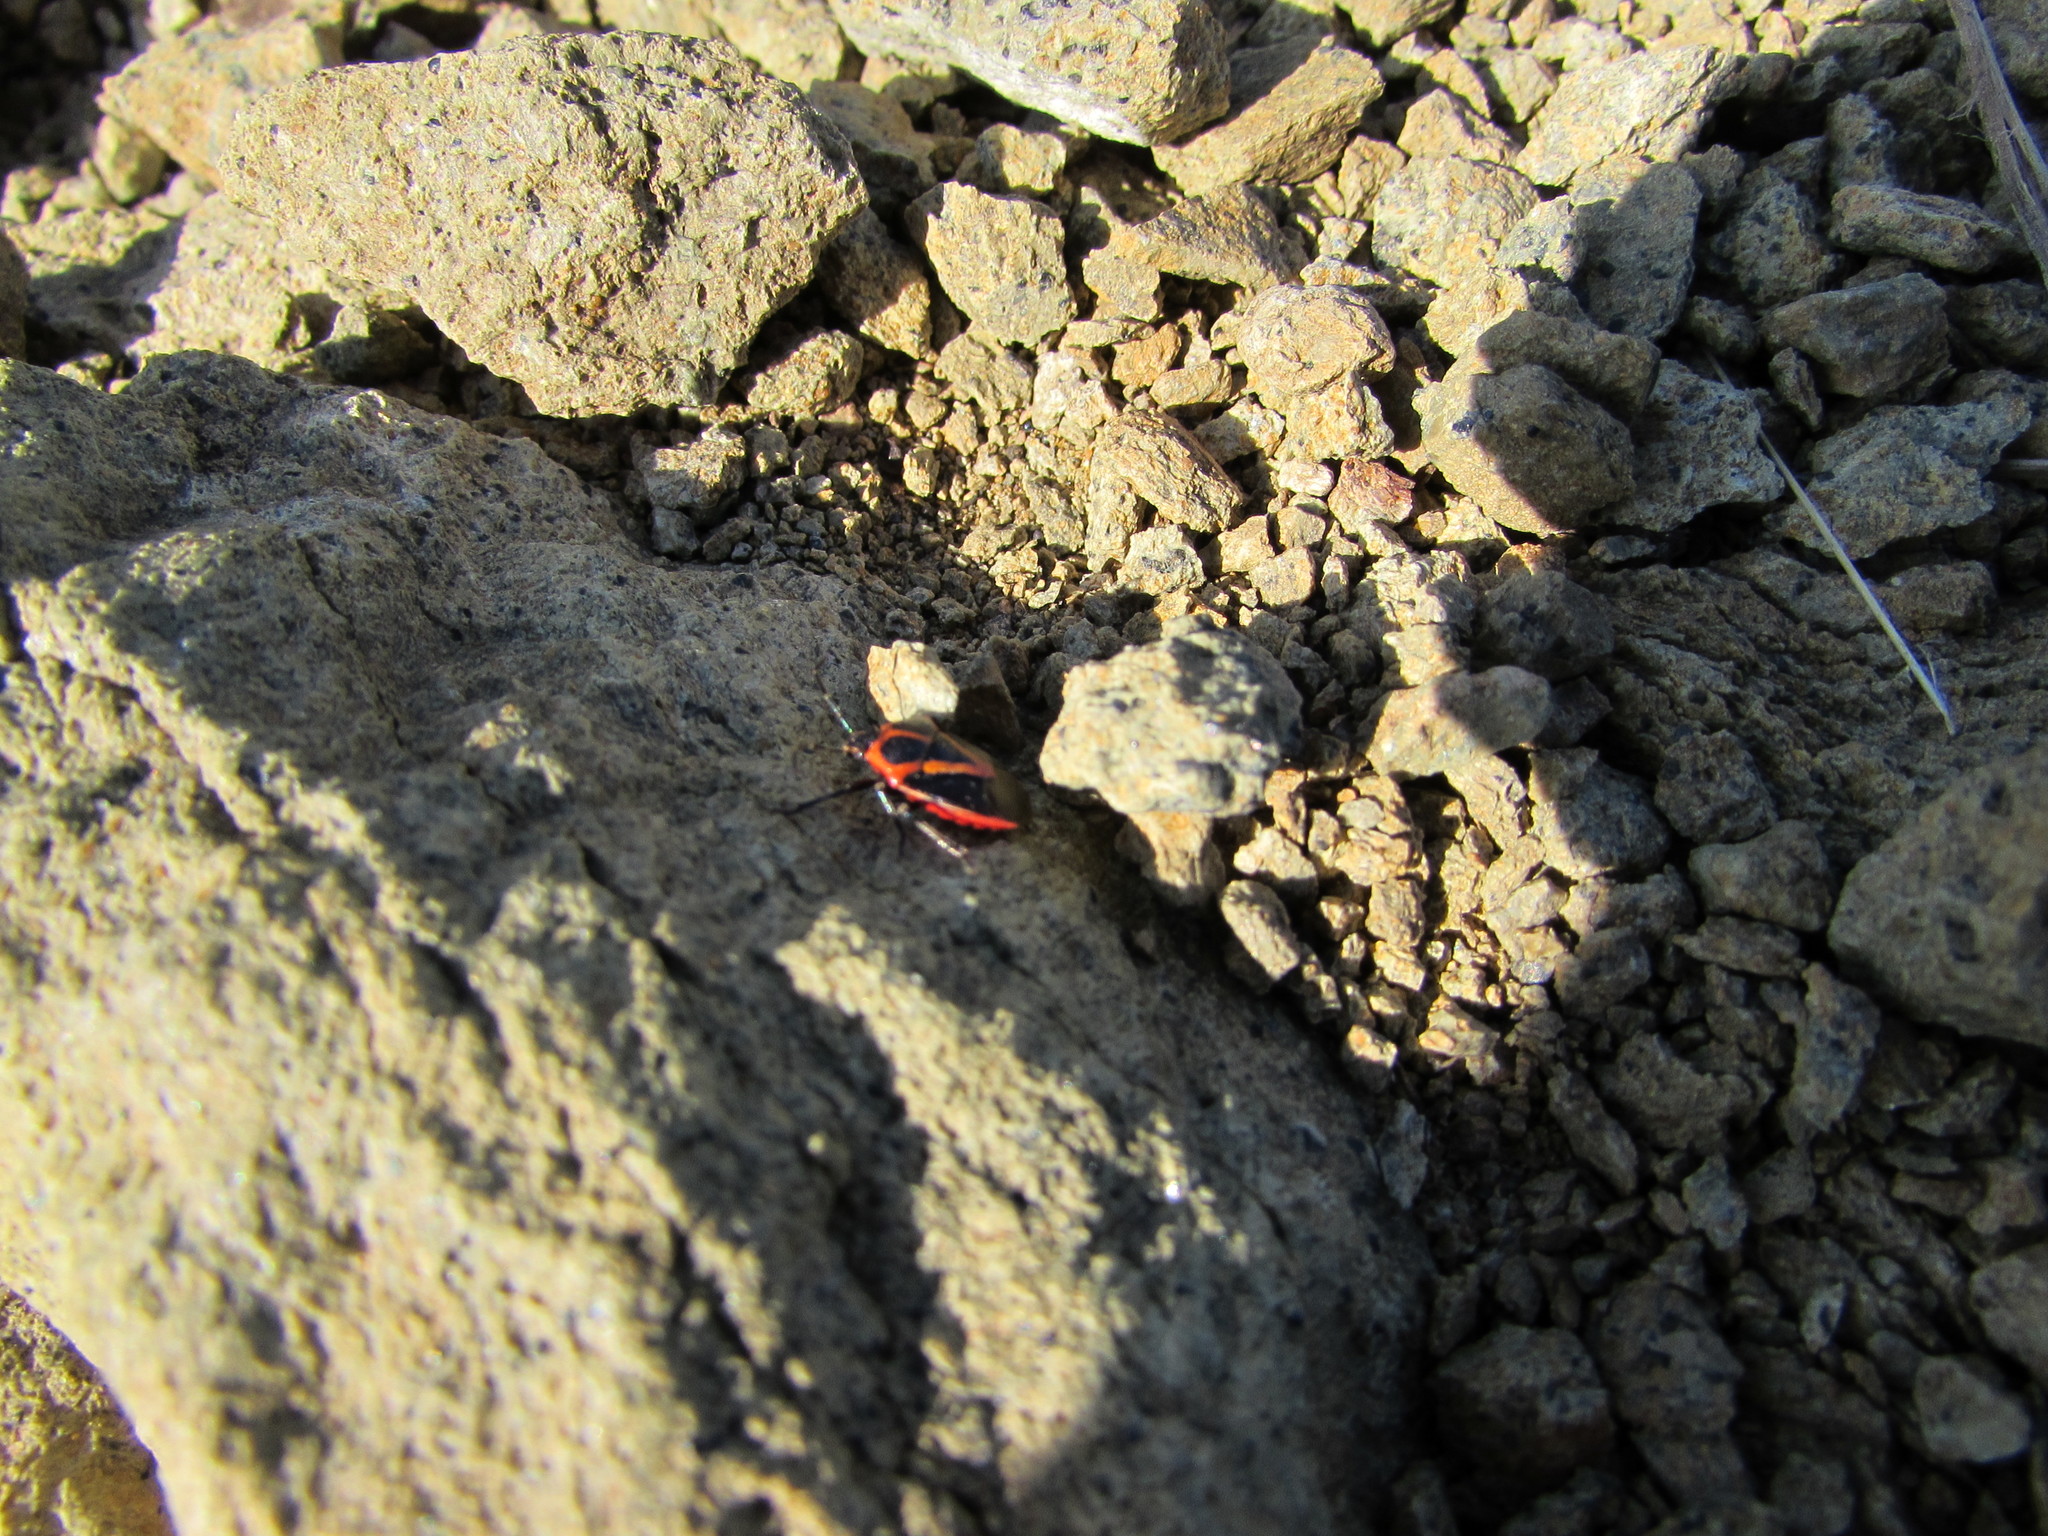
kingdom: Animalia
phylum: Arthropoda
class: Insecta
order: Hemiptera
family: Pentatomidae
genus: Perillus
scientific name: Perillus strigipes
